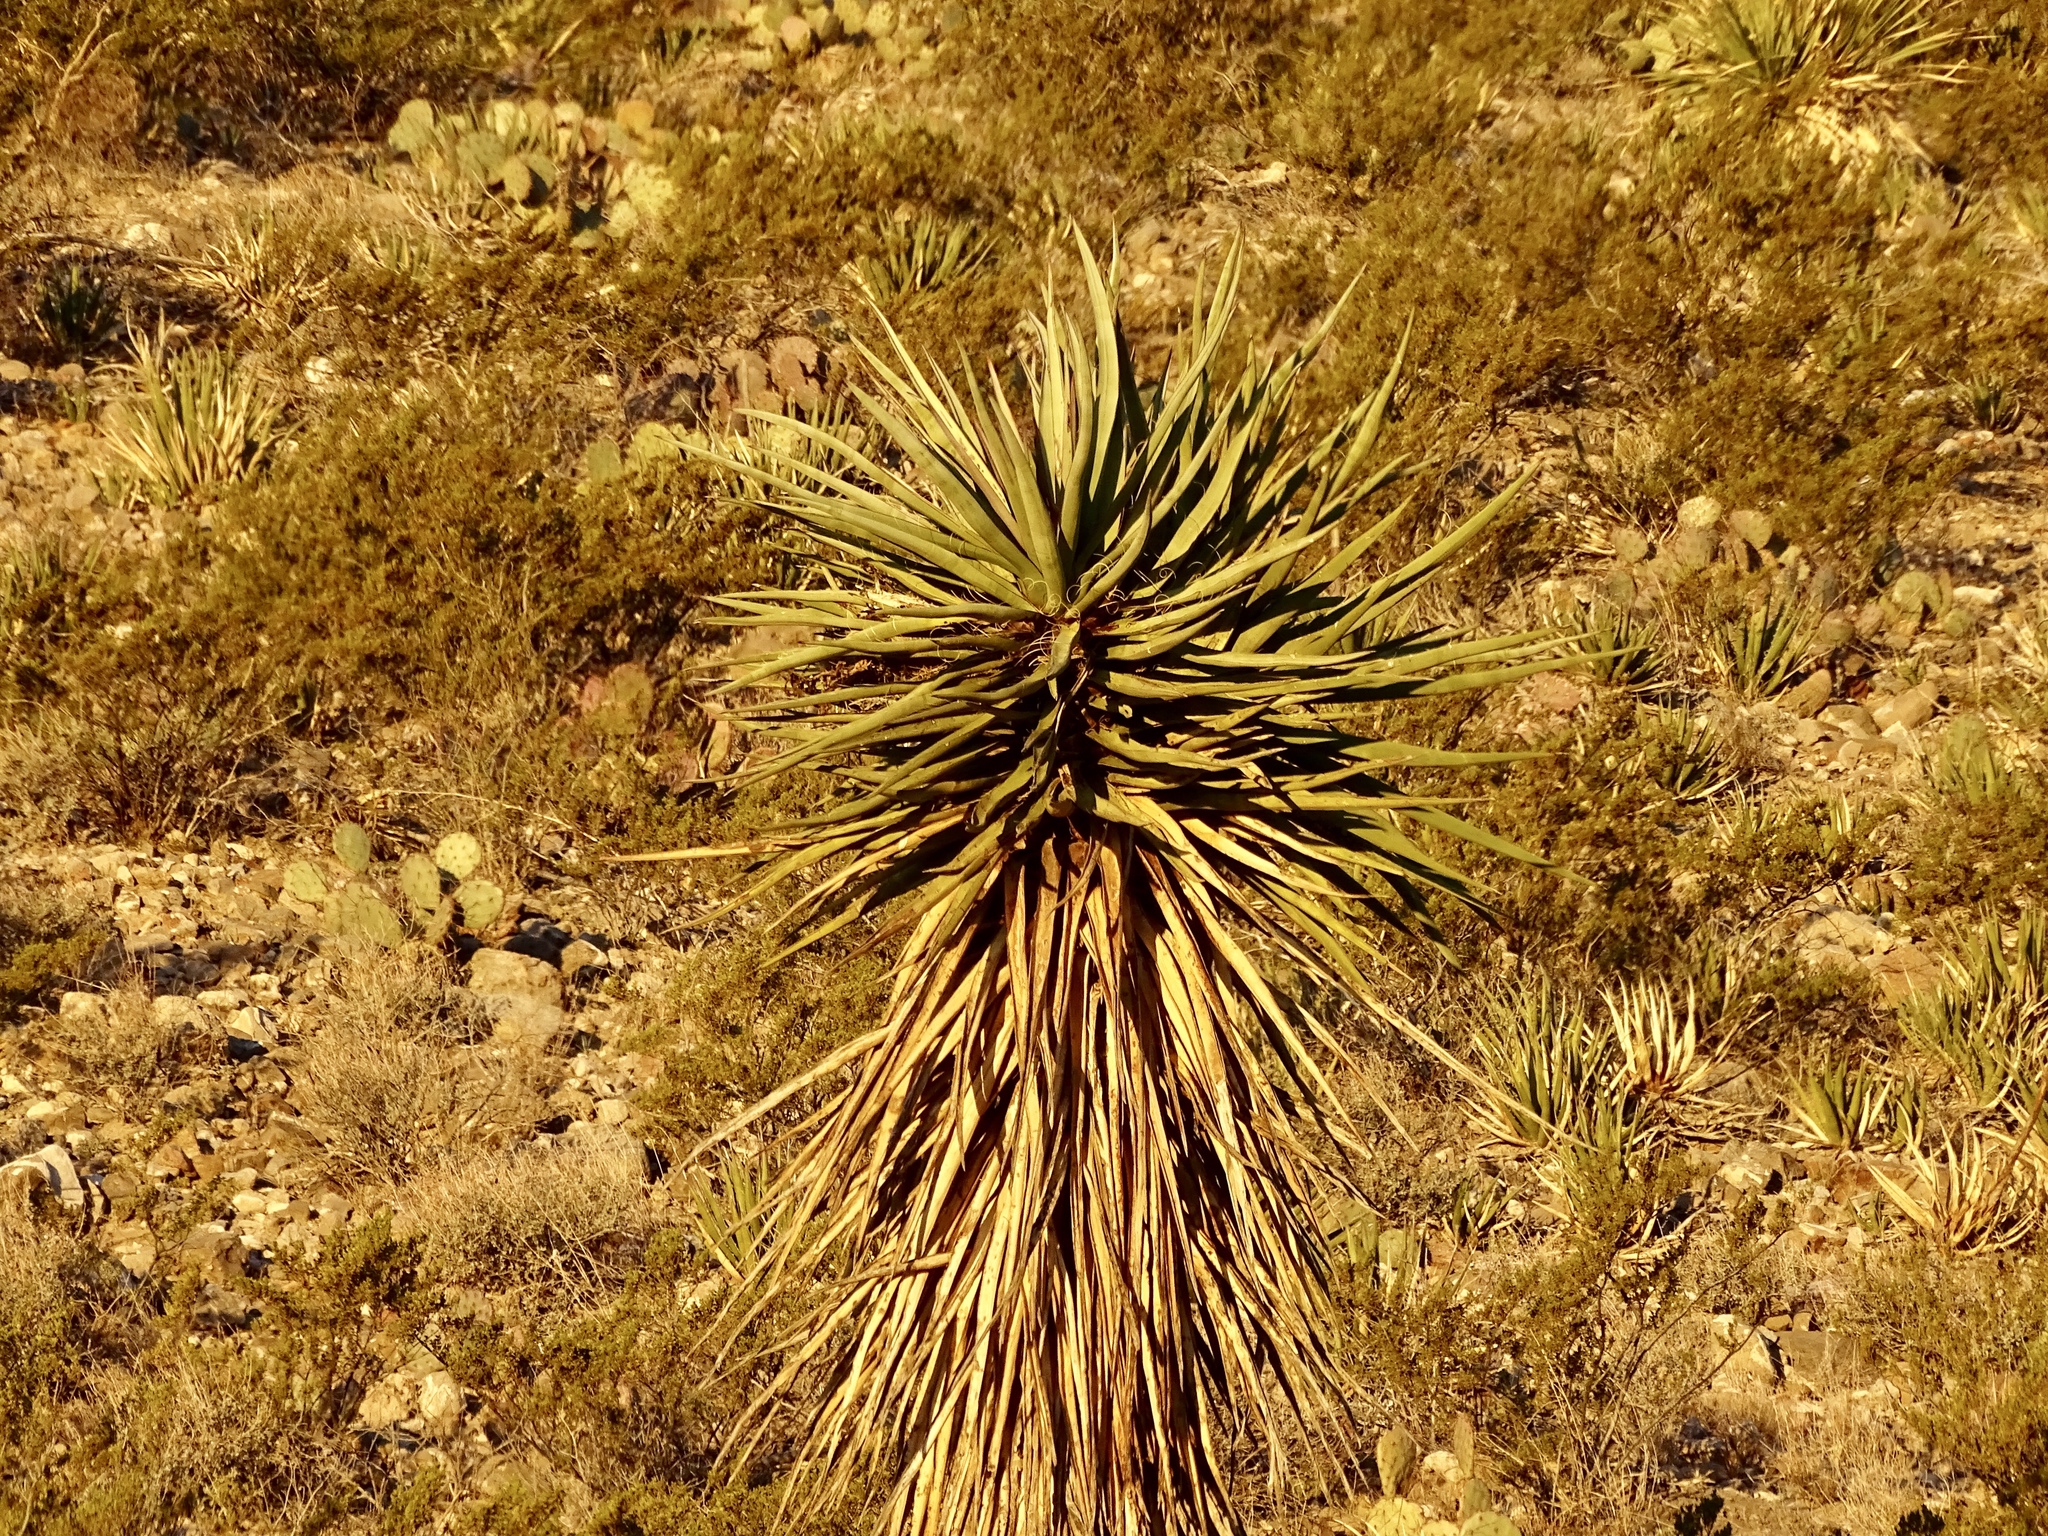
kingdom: Plantae
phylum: Tracheophyta
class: Liliopsida
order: Asparagales
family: Asparagaceae
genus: Yucca
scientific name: Yucca treculiana
